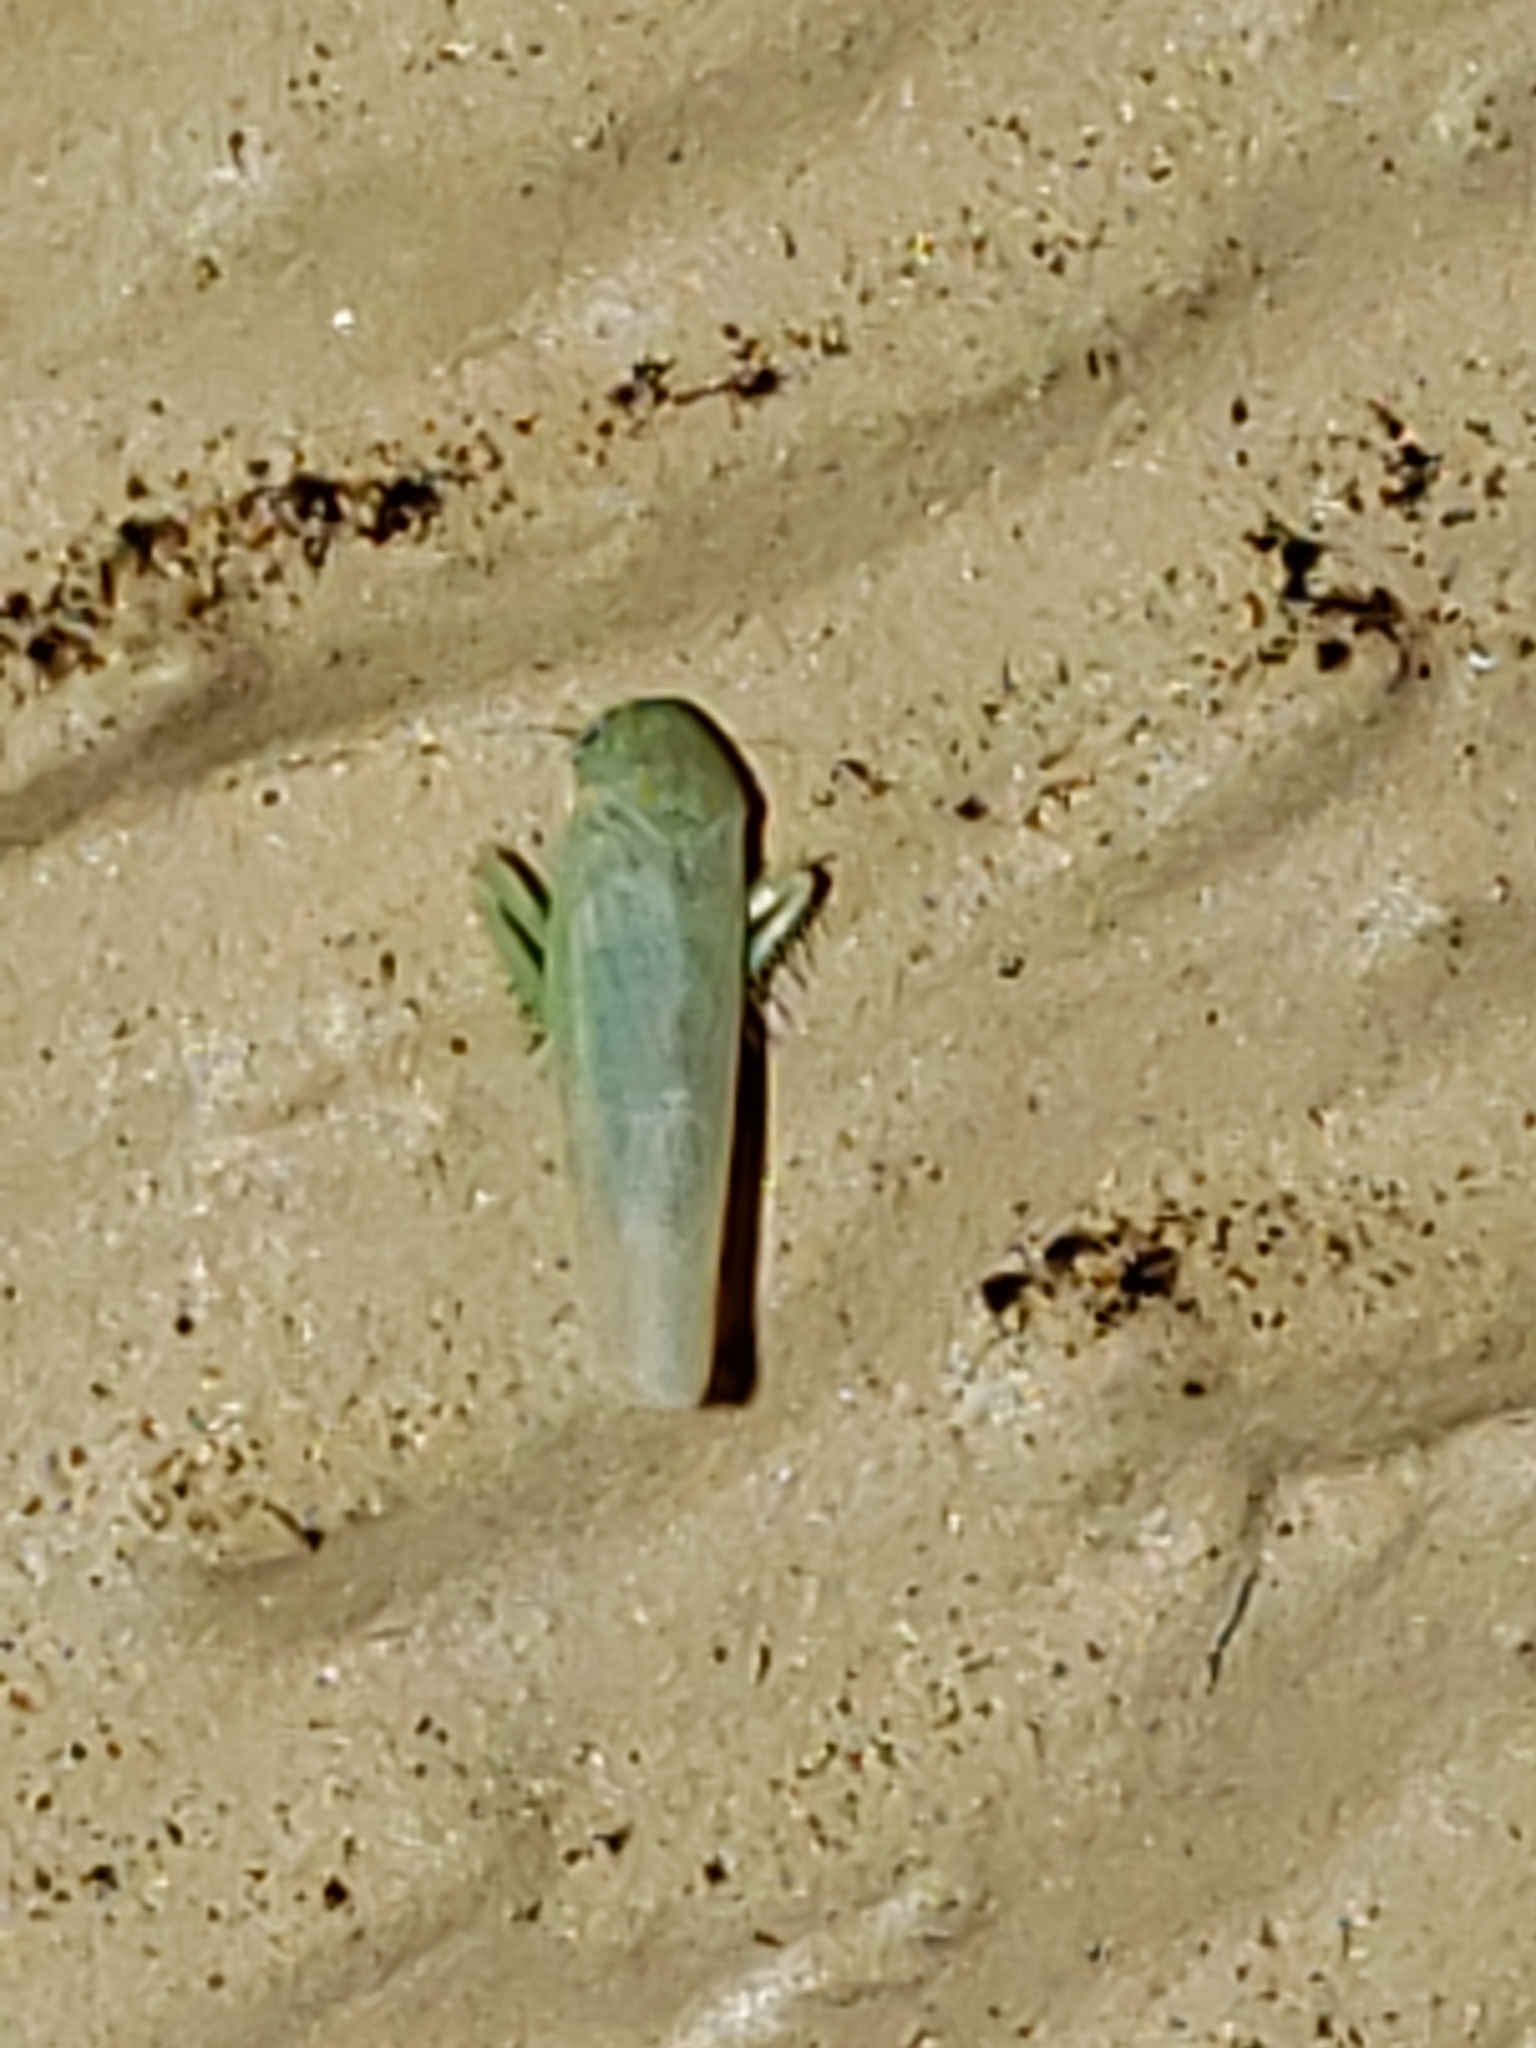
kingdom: Animalia
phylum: Arthropoda
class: Insecta
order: Hemiptera
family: Cicadellidae
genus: Balclutha
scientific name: Balclutha
